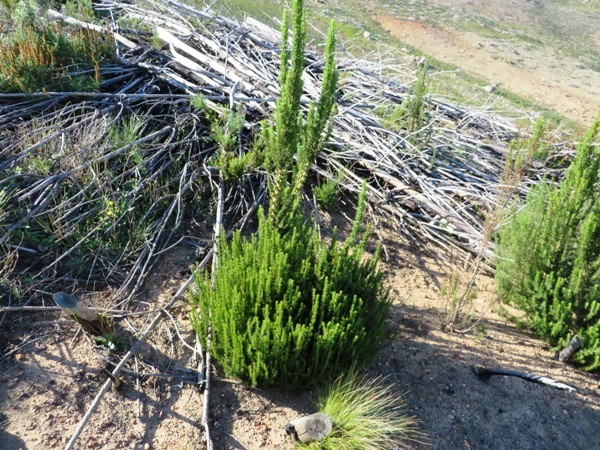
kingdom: Plantae
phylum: Tracheophyta
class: Magnoliopsida
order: Gentianales
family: Rubiaceae
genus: Anthospermum
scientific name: Anthospermum aethiopicum
